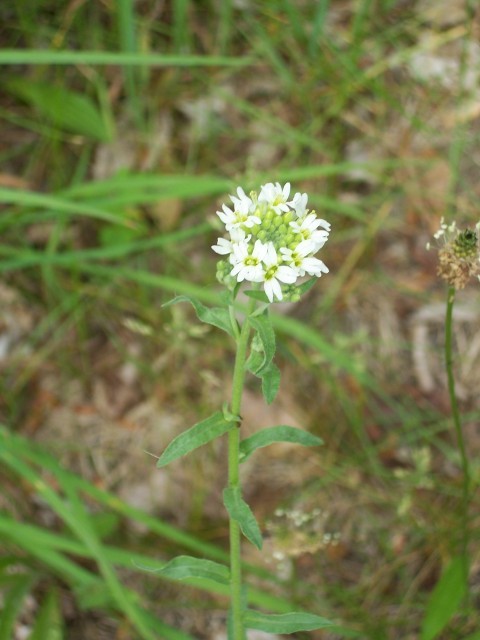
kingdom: Plantae
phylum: Tracheophyta
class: Magnoliopsida
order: Brassicales
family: Brassicaceae
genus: Berteroa
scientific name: Berteroa incana
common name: Hoary alison
